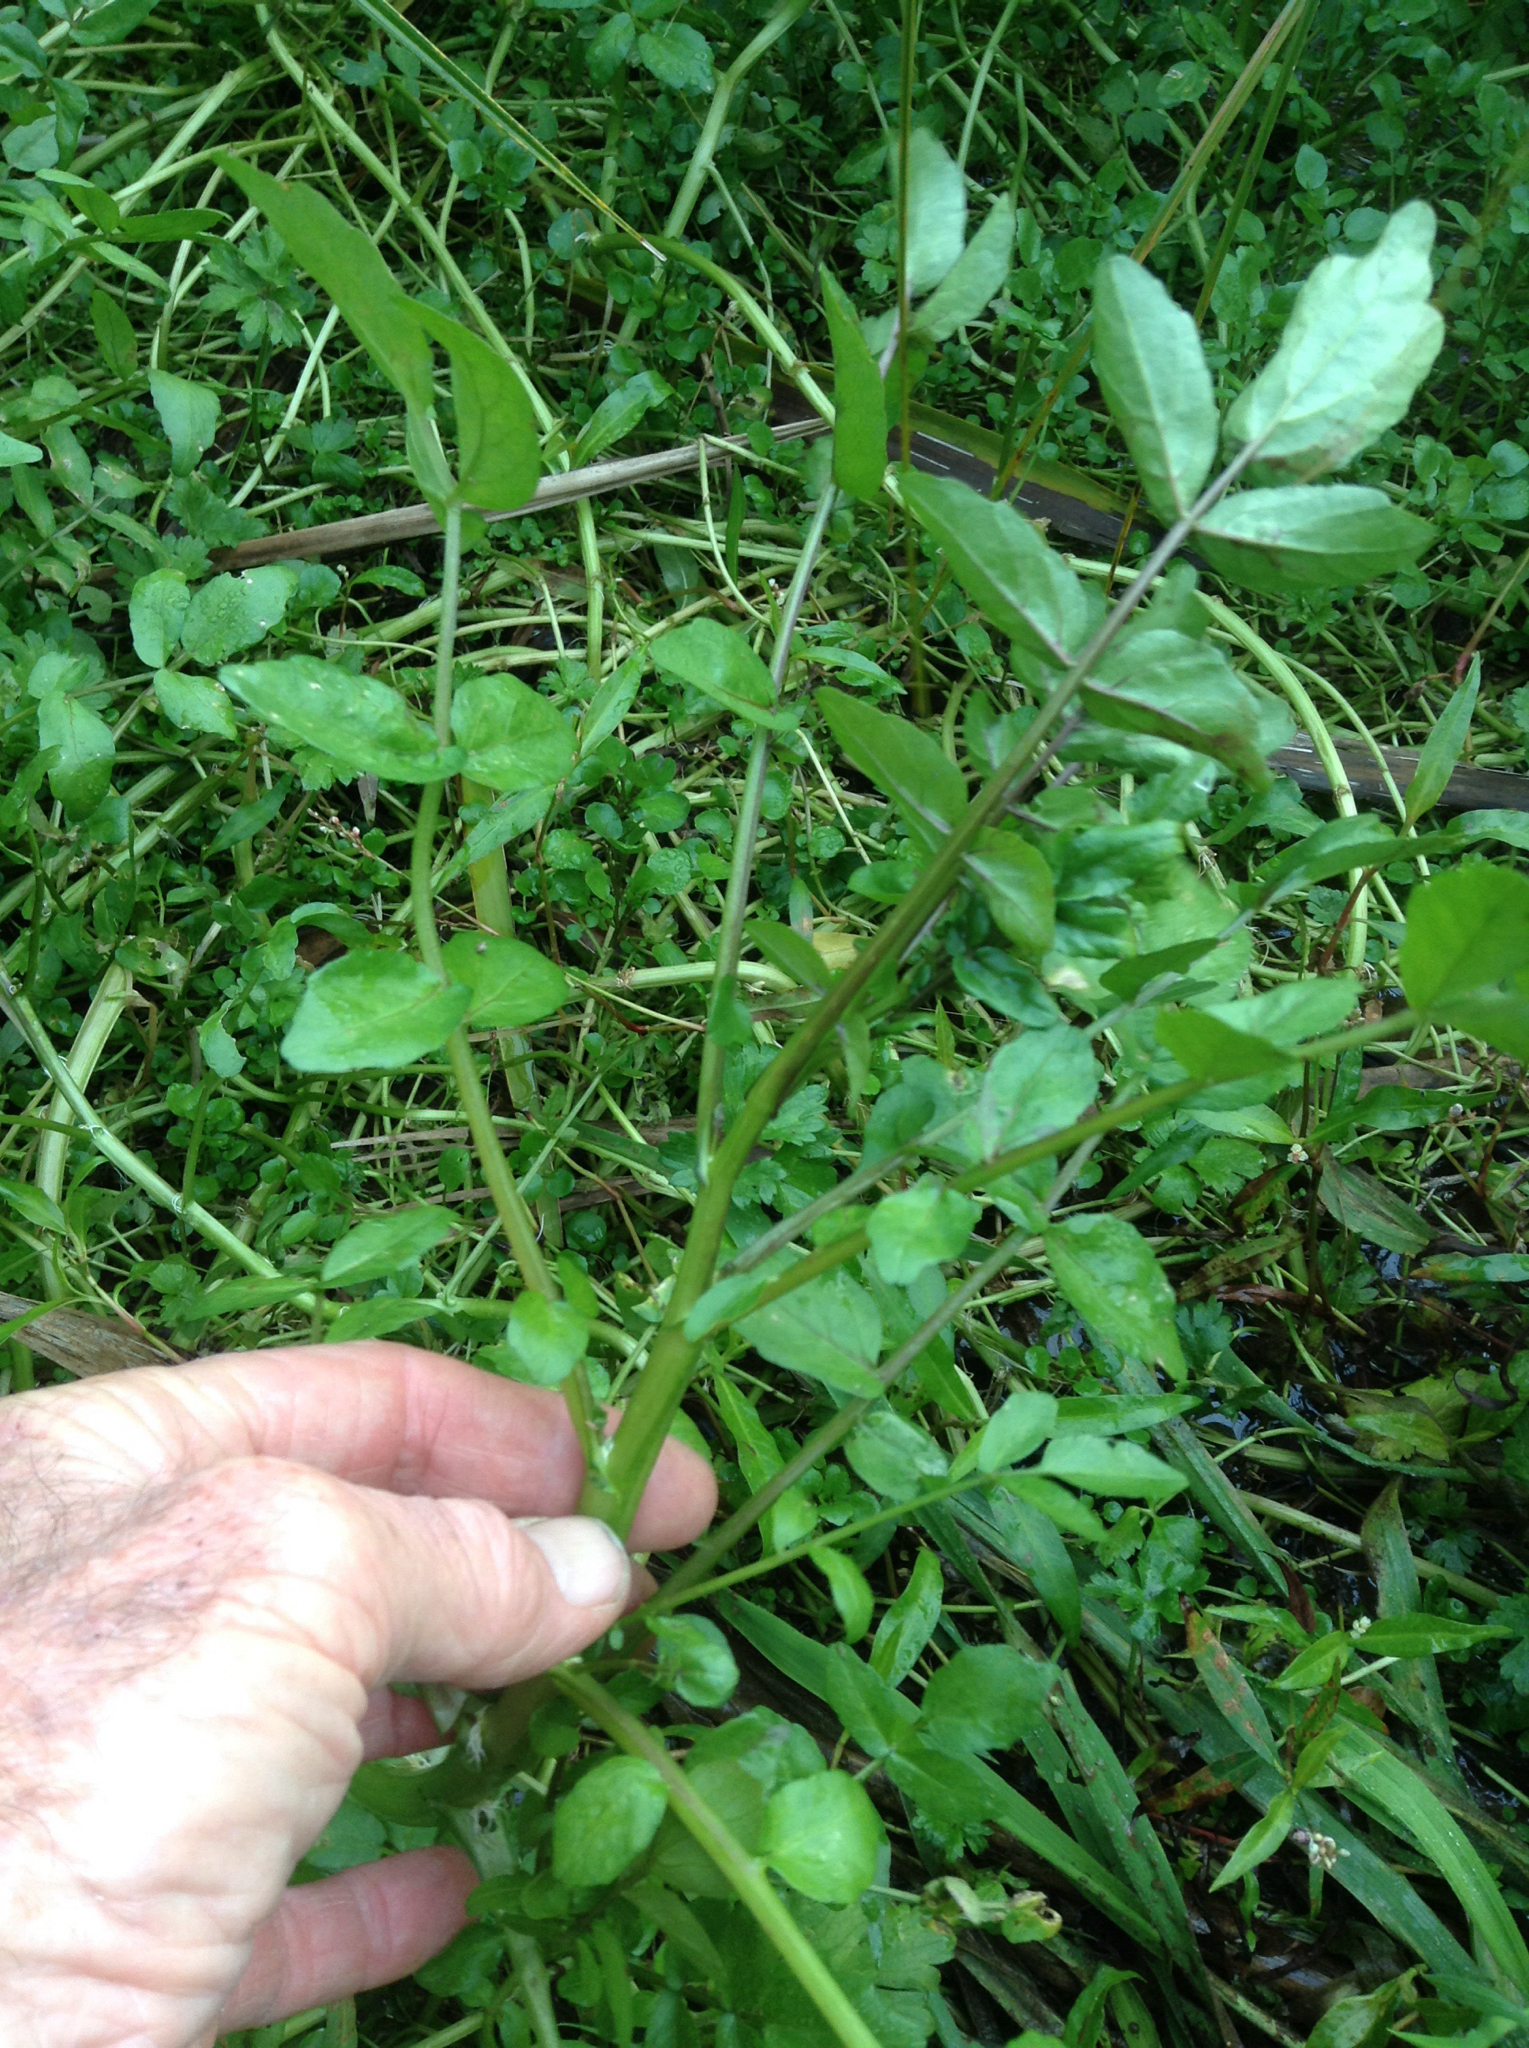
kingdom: Plantae
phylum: Tracheophyta
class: Magnoliopsida
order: Apiales
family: Apiaceae
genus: Helosciadium
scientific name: Helosciadium nodiflorum
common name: Fool's-watercress
